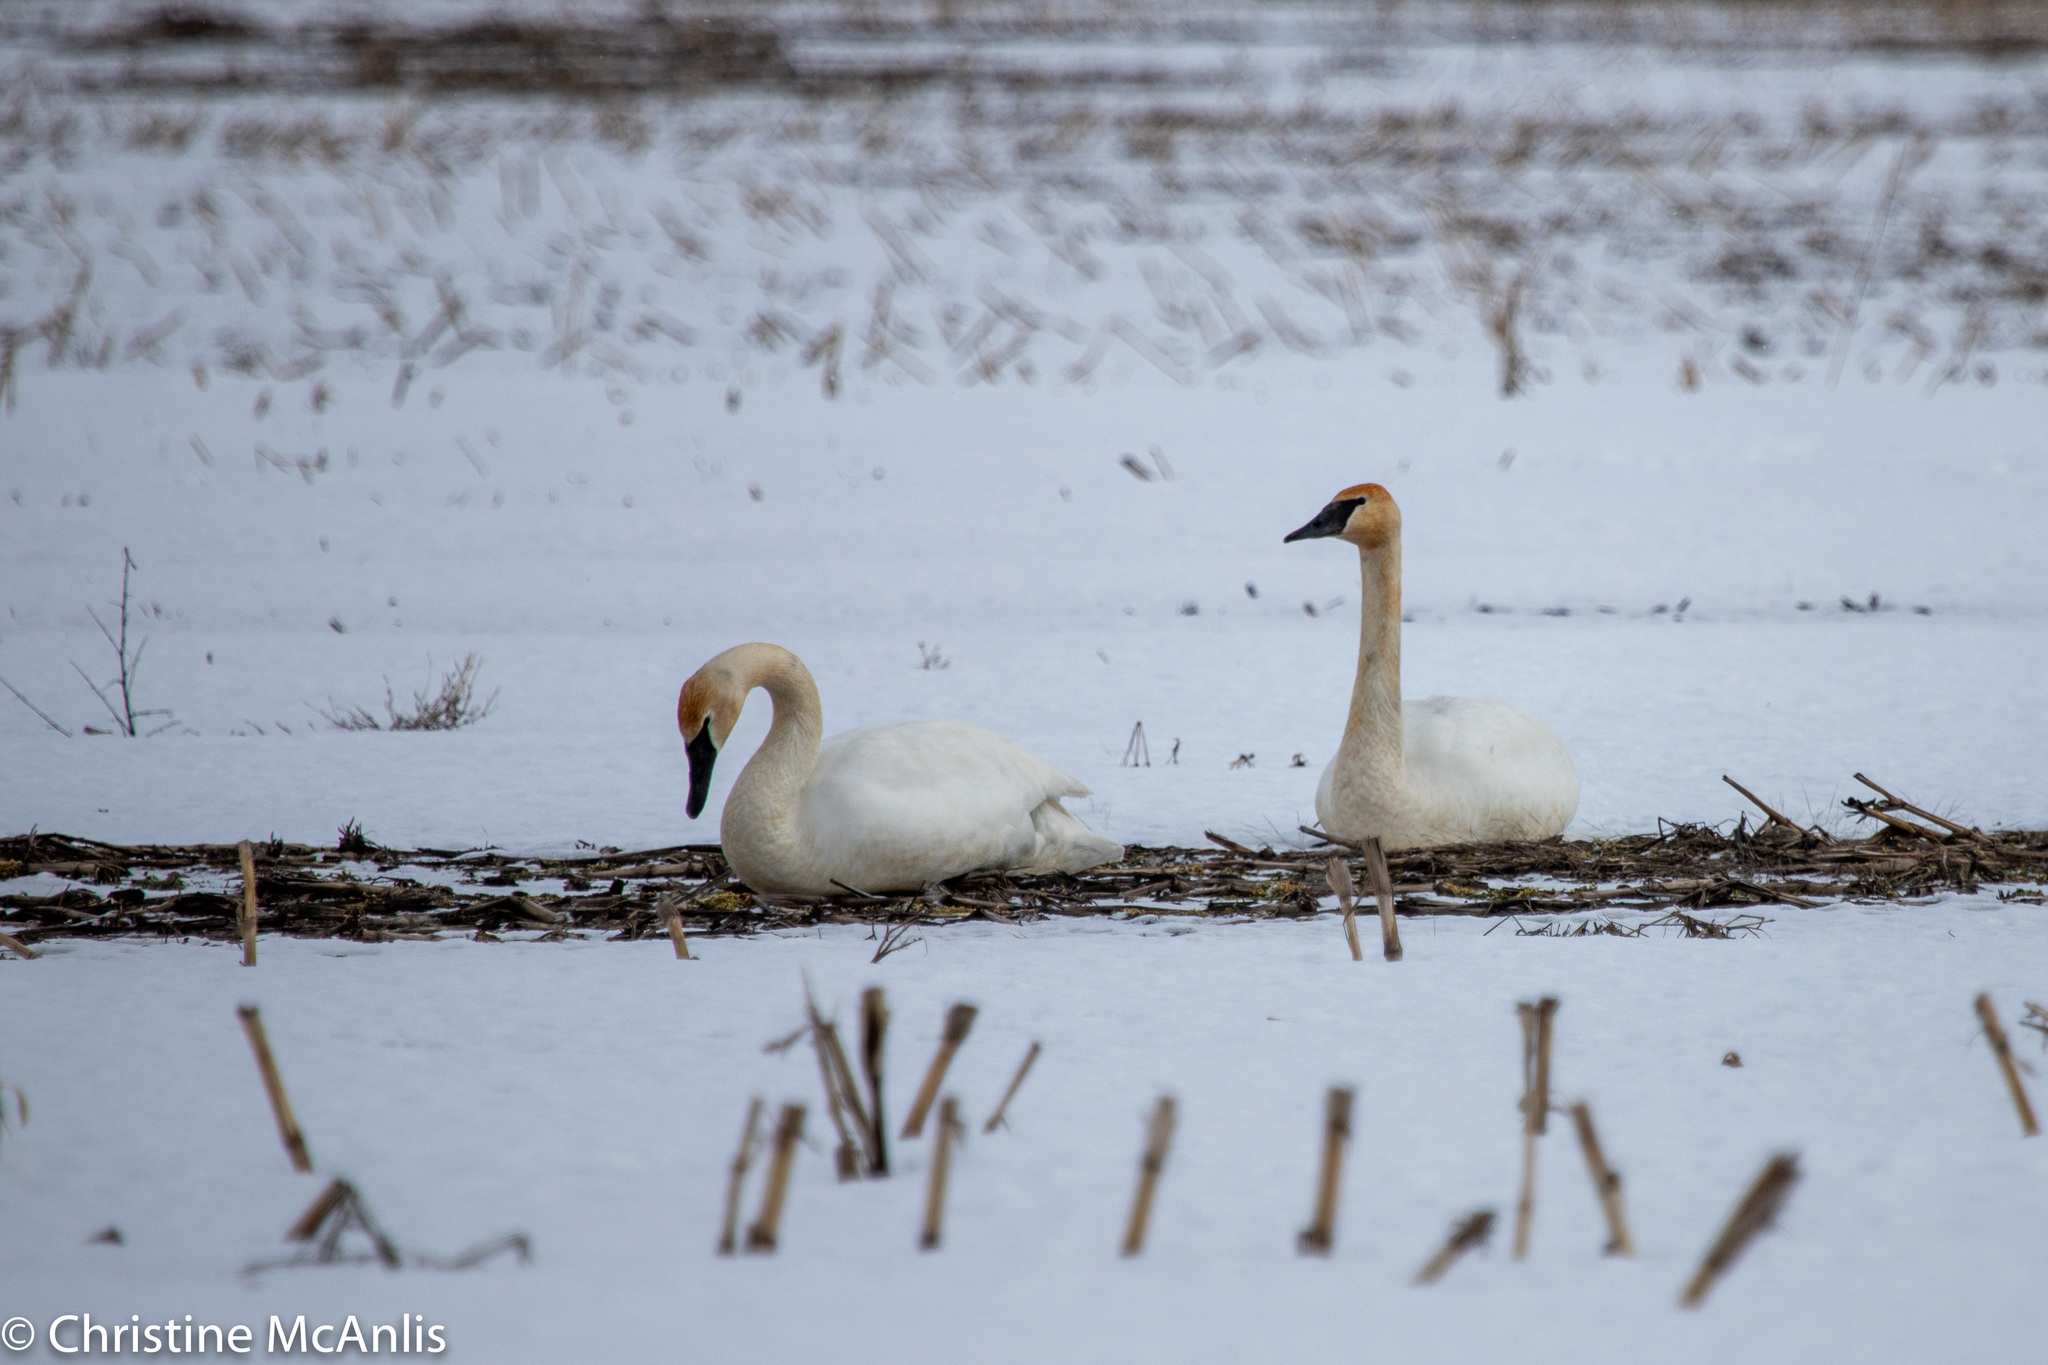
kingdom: Animalia
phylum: Chordata
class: Aves
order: Anseriformes
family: Anatidae
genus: Cygnus
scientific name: Cygnus columbianus
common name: Tundra swan
